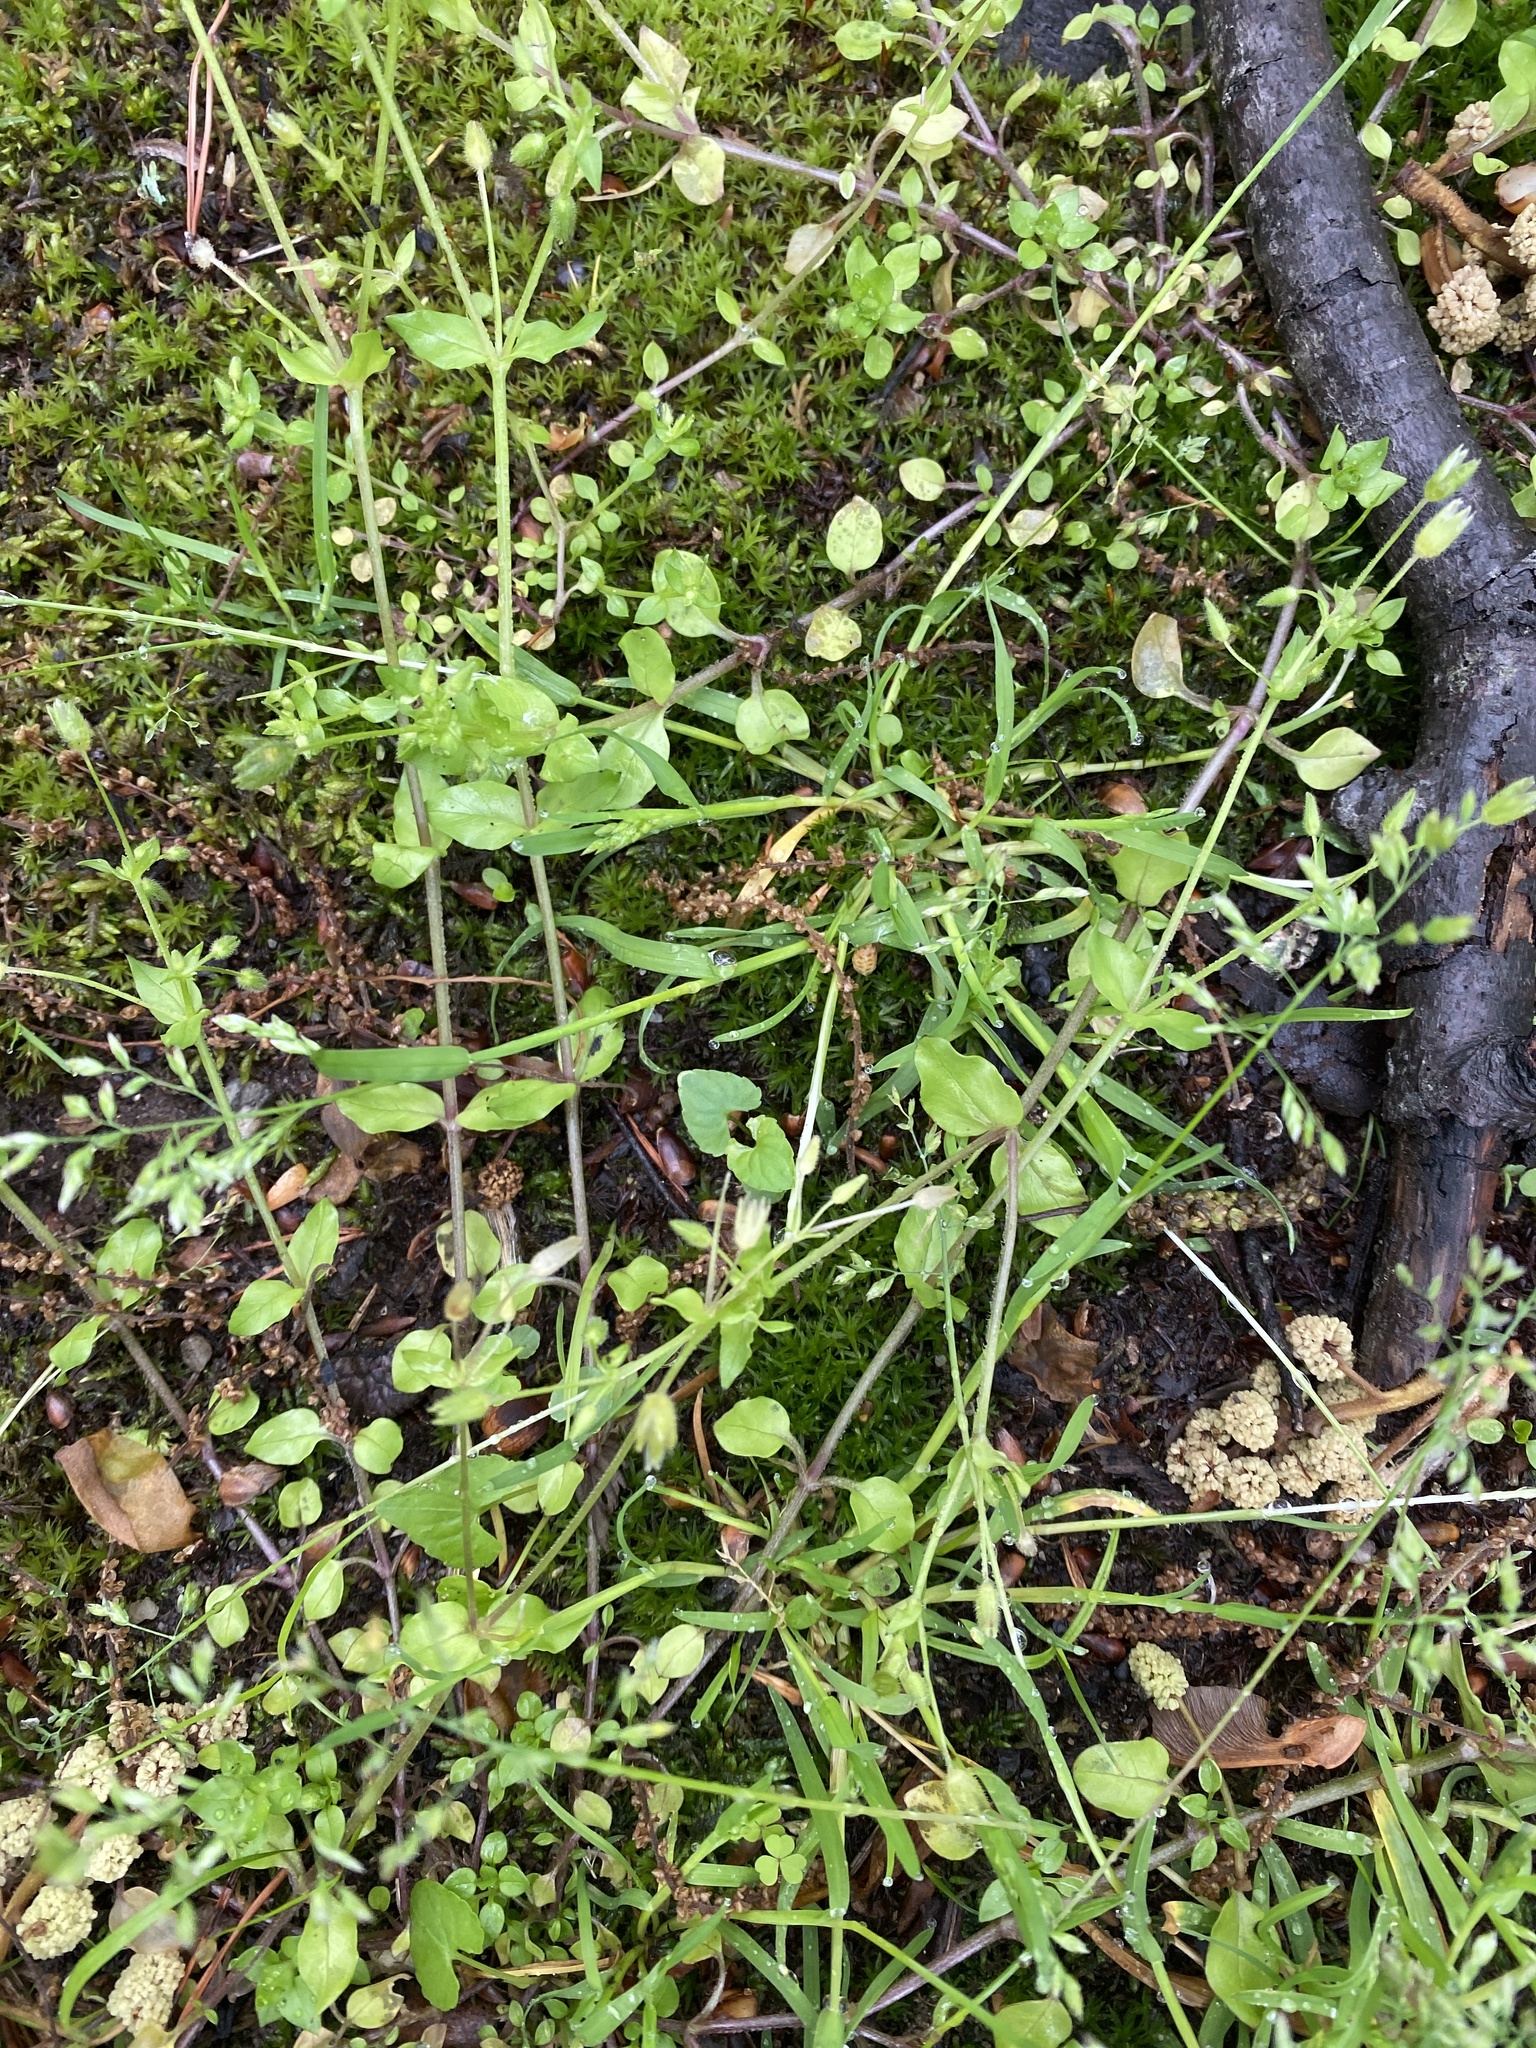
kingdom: Plantae
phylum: Tracheophyta
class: Magnoliopsida
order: Caryophyllales
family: Caryophyllaceae
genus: Stellaria
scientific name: Stellaria media
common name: Common chickweed
